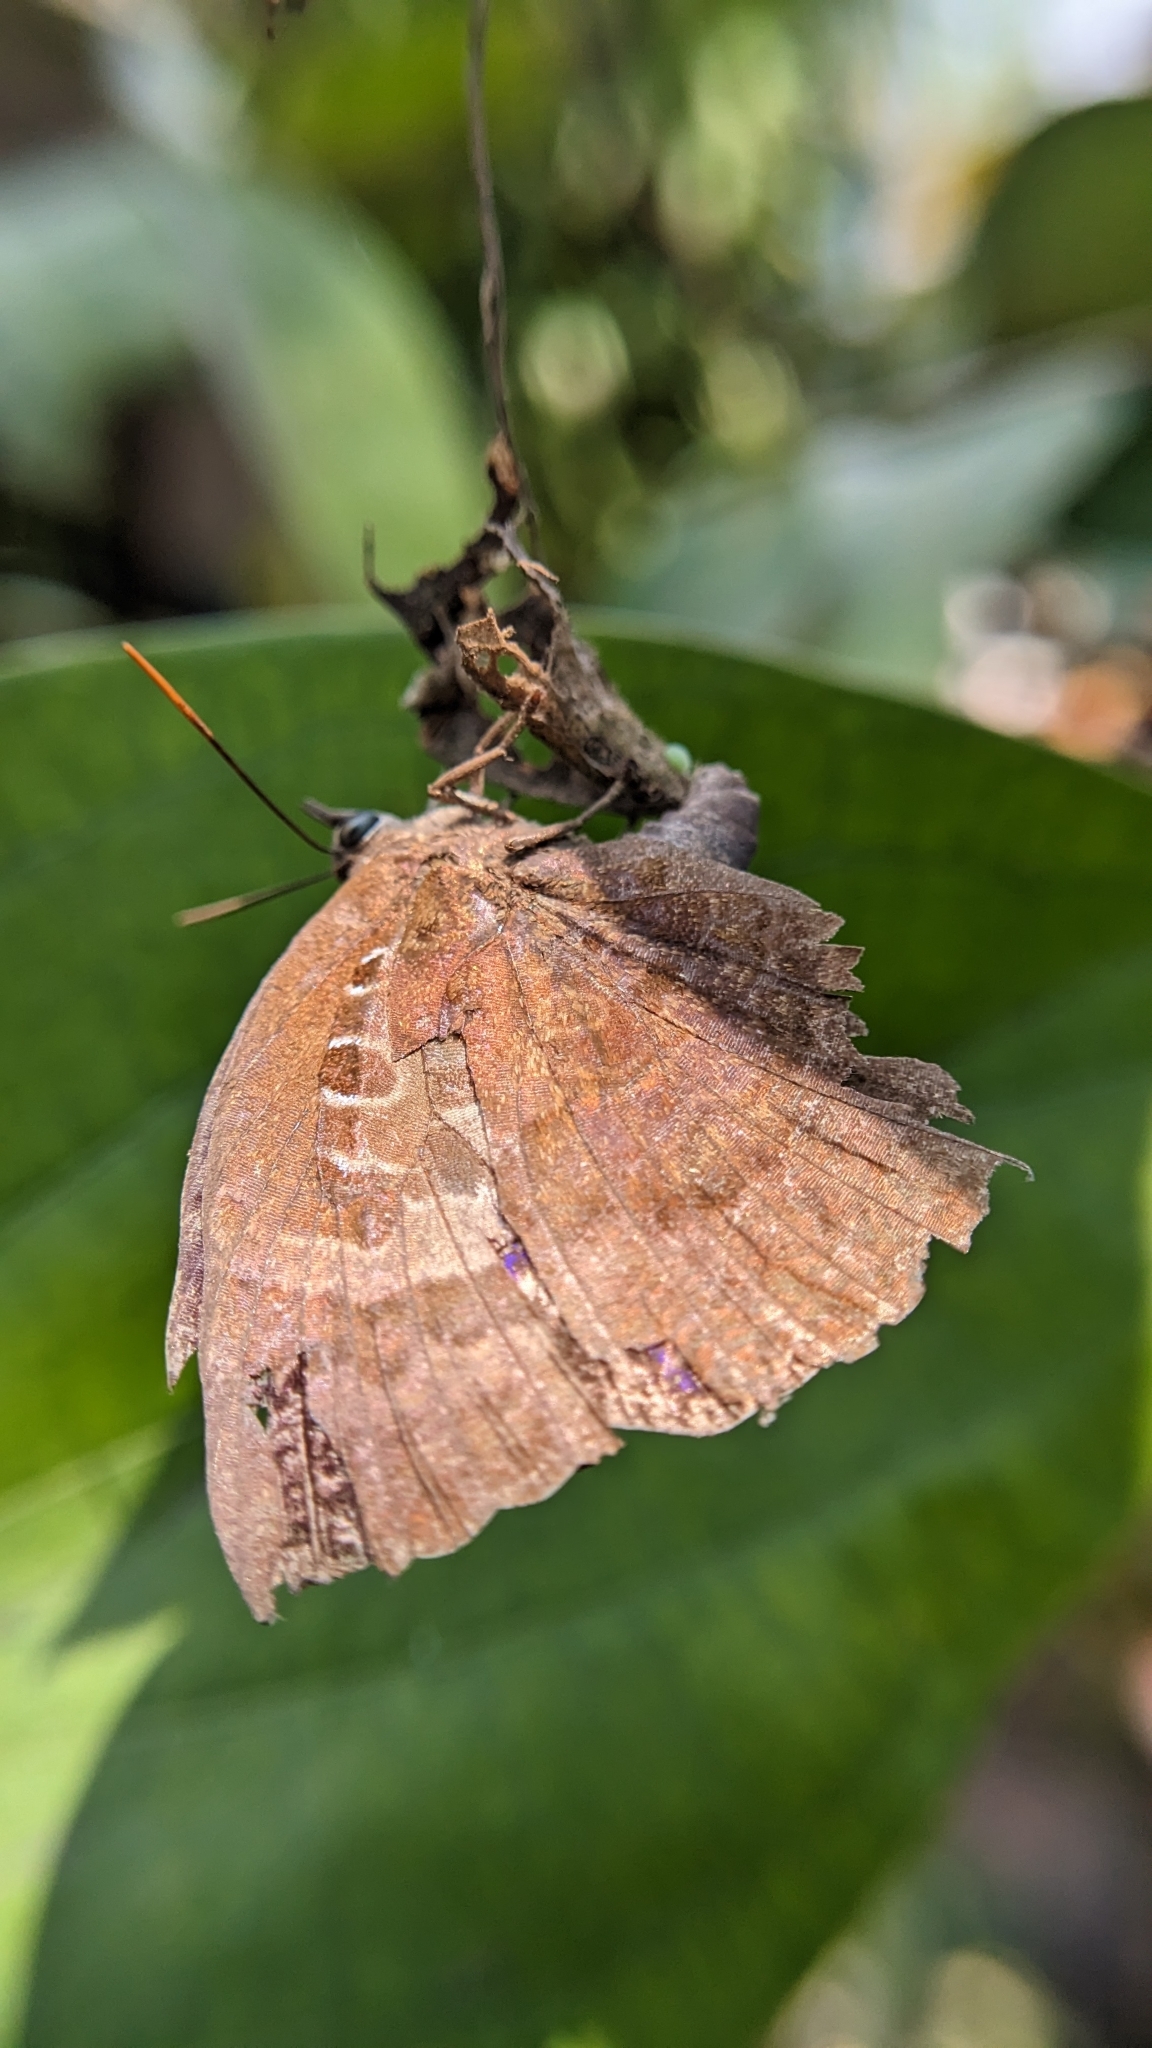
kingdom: Animalia
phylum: Arthropoda
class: Insecta
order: Lepidoptera
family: Lycaenidae
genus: Arhopala
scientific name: Arhopala centaurus
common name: Dull oak-blue
